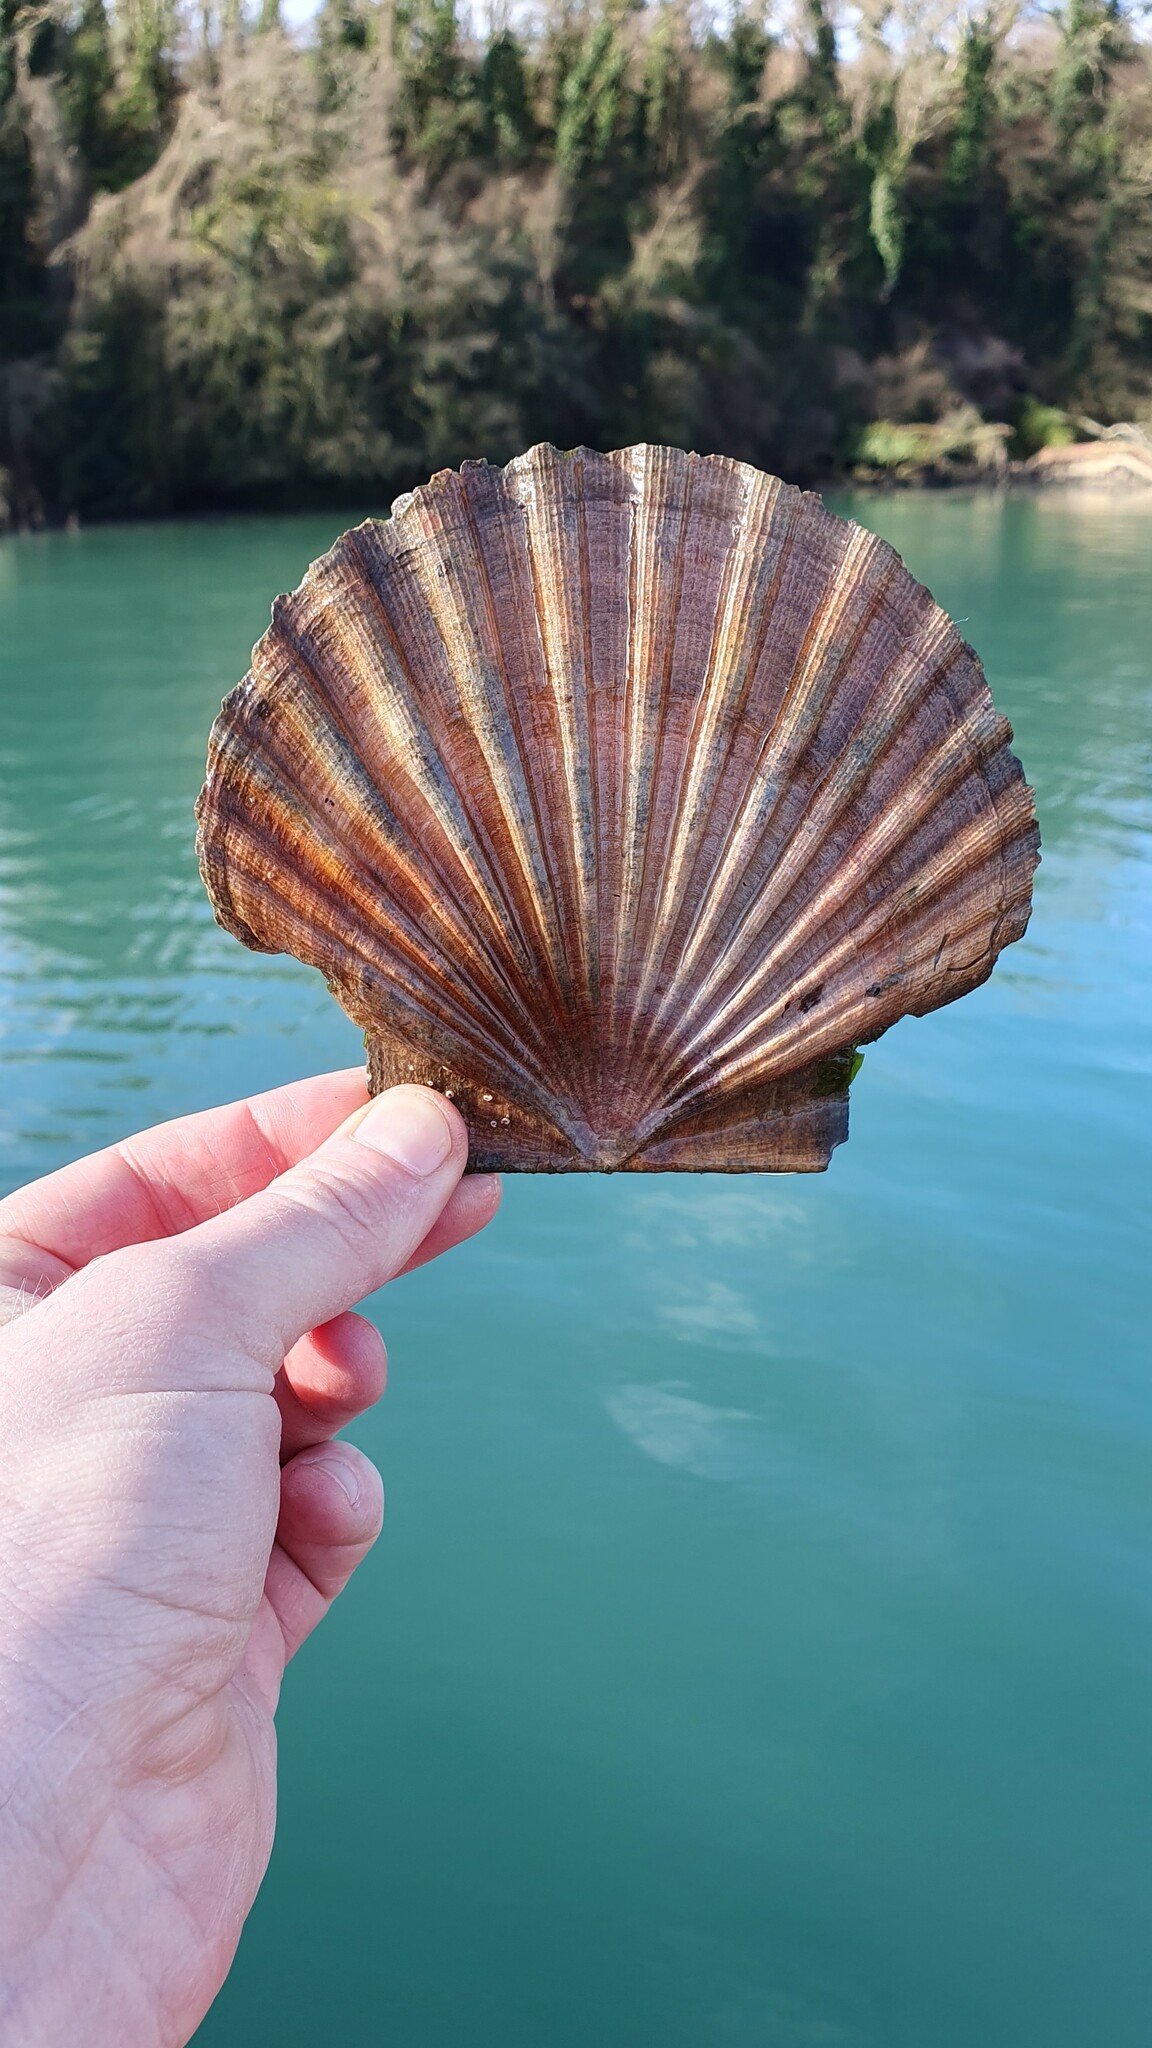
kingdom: Animalia
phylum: Mollusca
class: Bivalvia
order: Pectinida
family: Pectinidae
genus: Pecten
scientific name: Pecten maximus
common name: Great scallop
